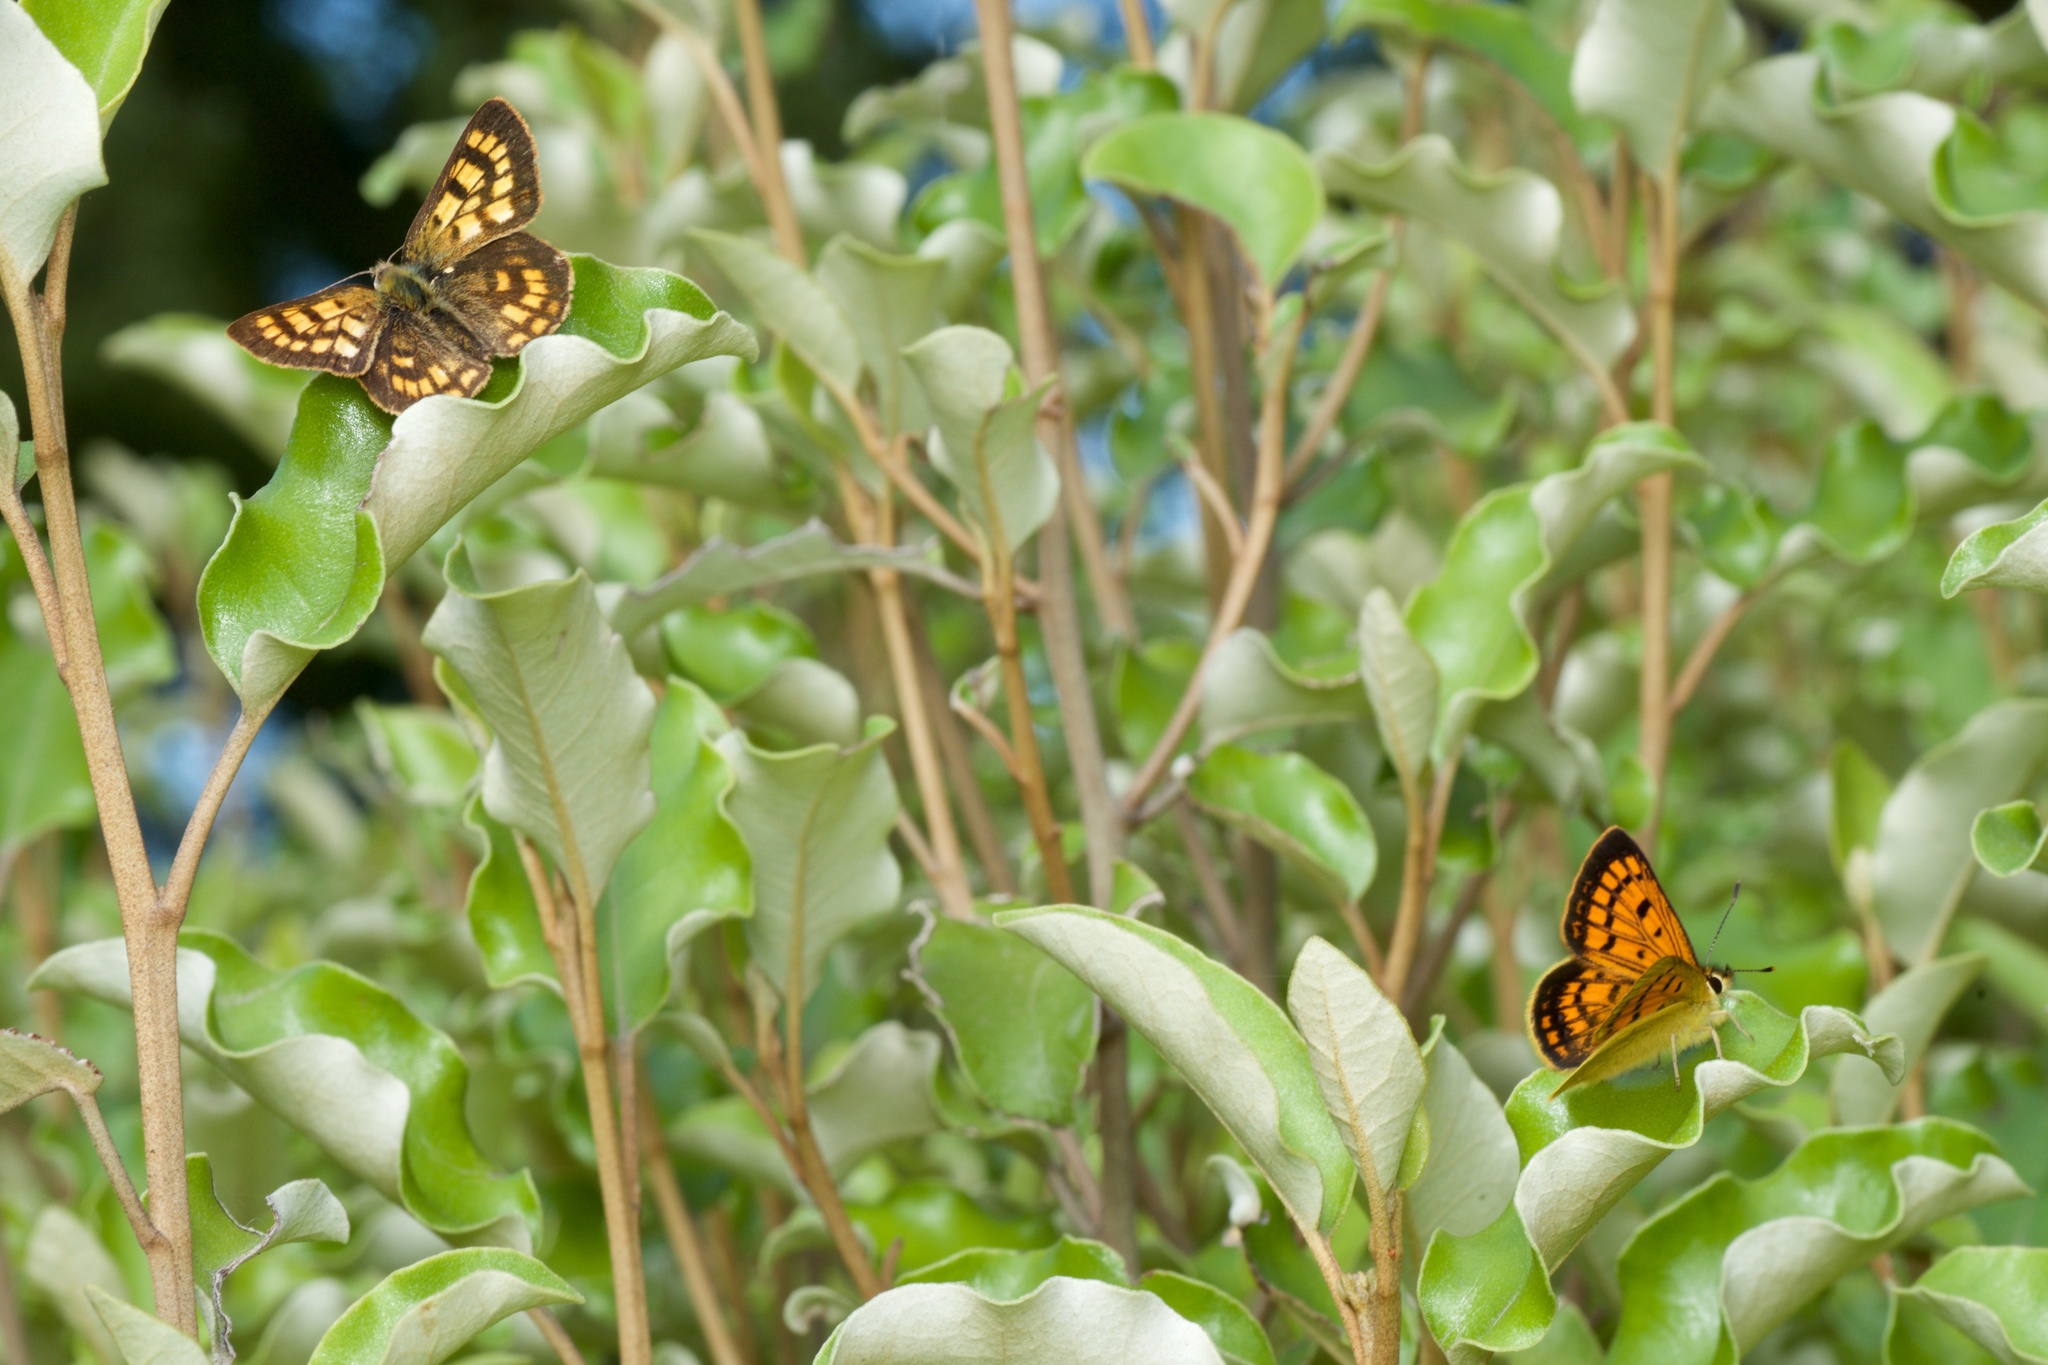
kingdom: Animalia
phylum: Arthropoda
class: Insecta
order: Lepidoptera
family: Lycaenidae
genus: Lycaena
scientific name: Lycaena feredayi
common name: Glade copper
